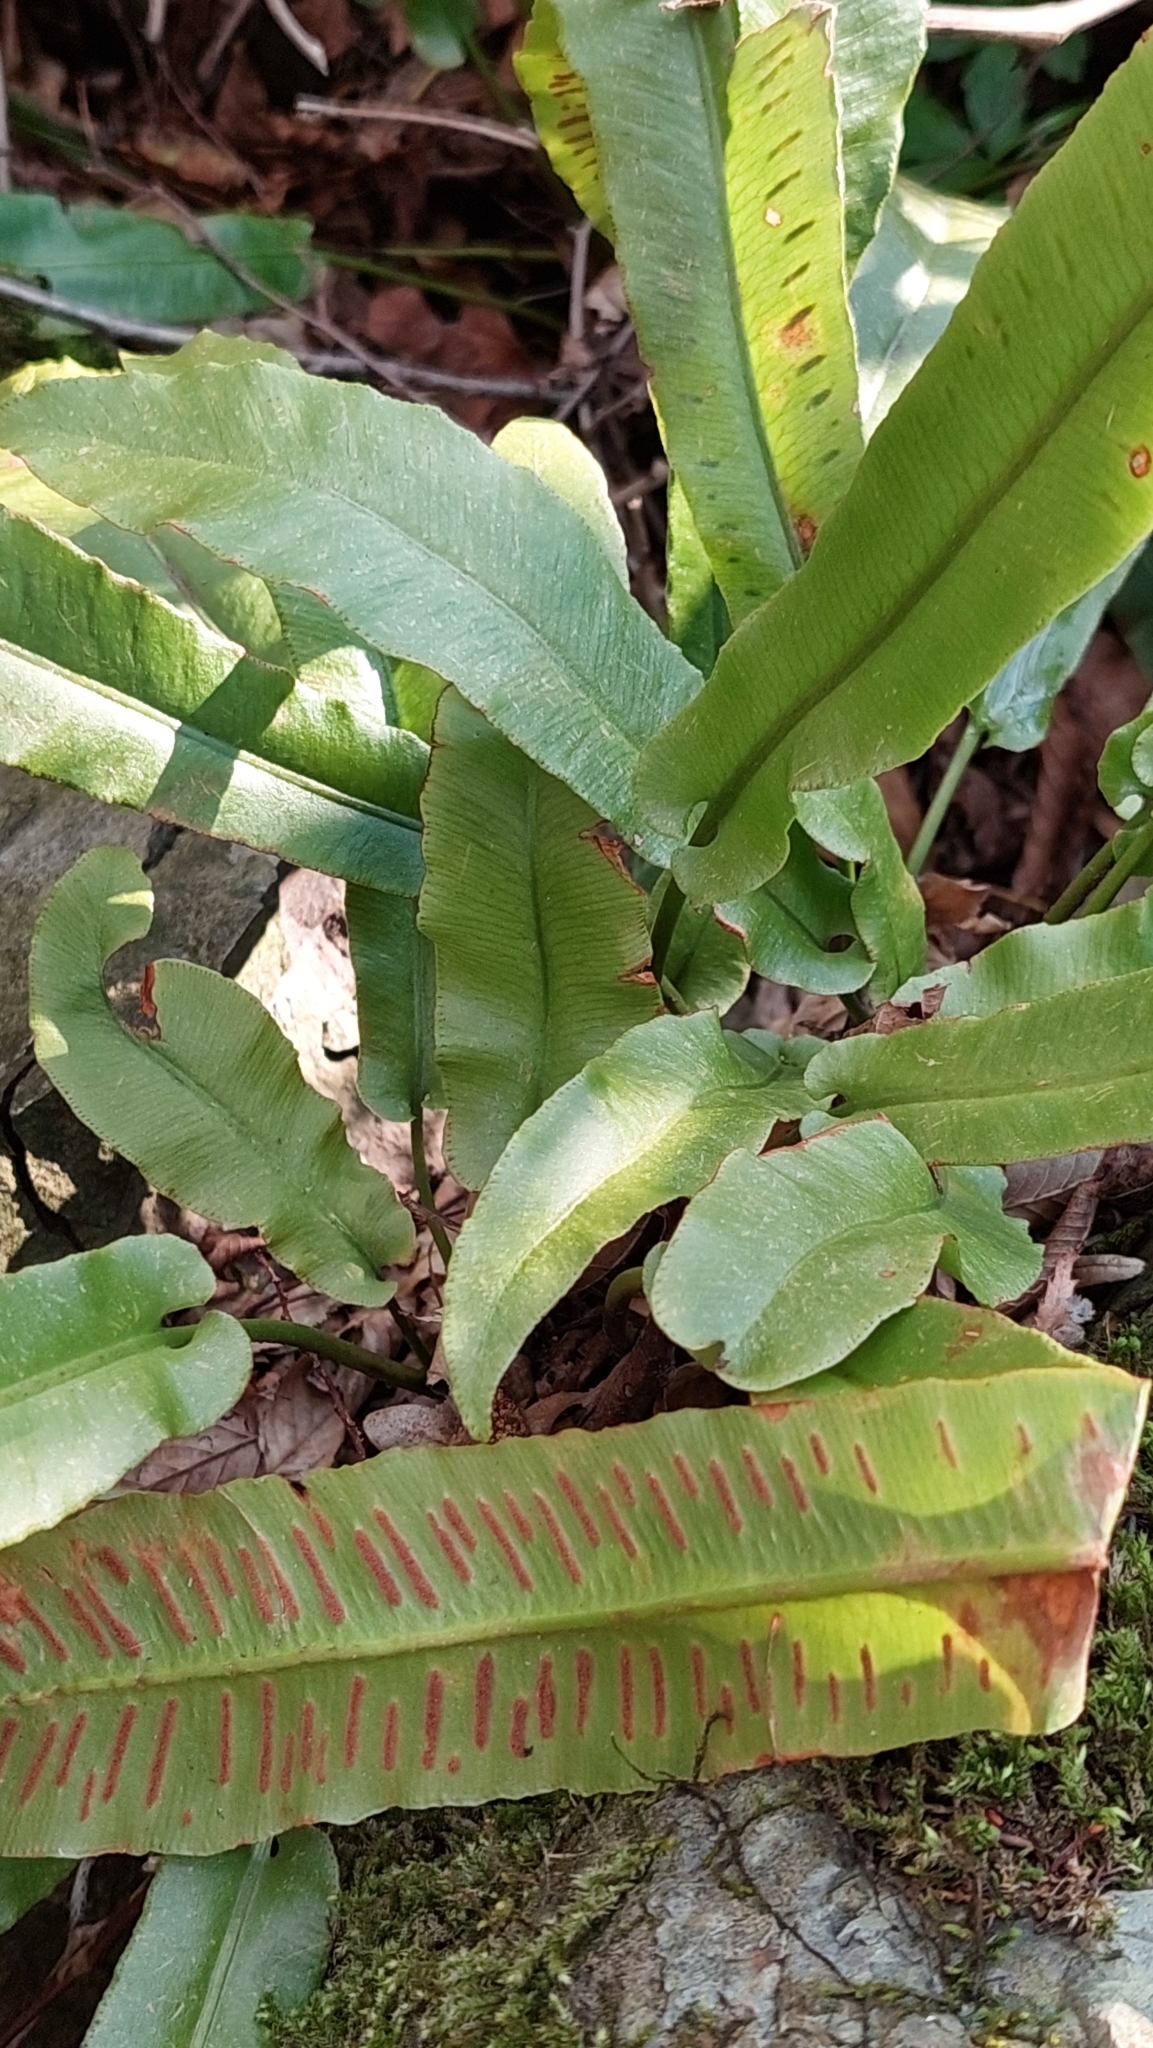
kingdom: Plantae
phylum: Tracheophyta
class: Polypodiopsida
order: Polypodiales
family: Aspleniaceae
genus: Asplenium
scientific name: Asplenium scolopendrium
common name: Hart's-tongue fern
